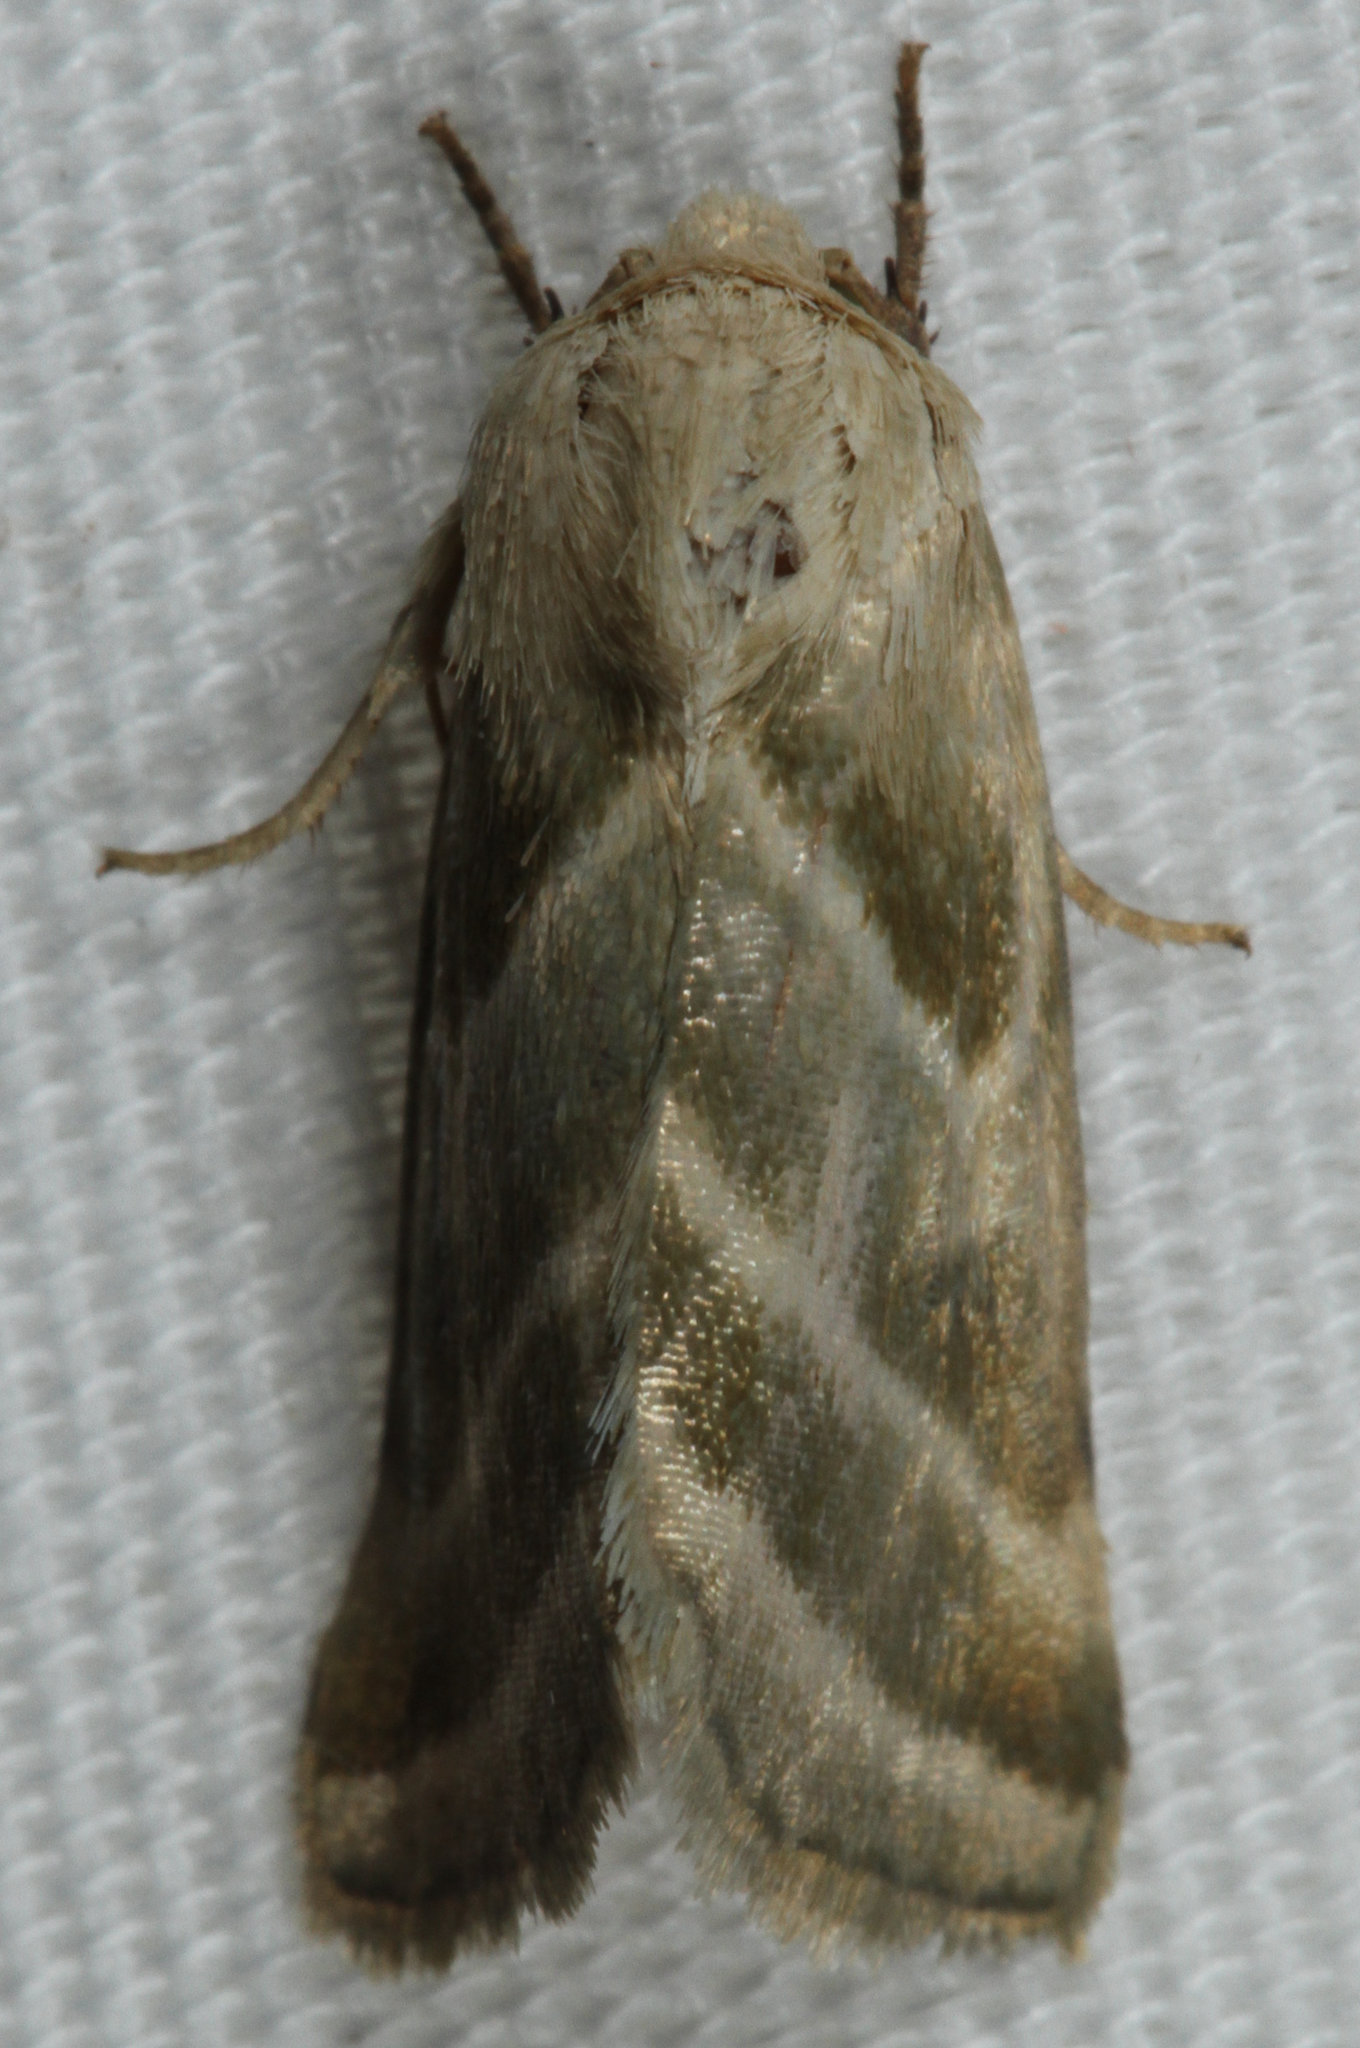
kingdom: Animalia
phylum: Arthropoda
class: Insecta
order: Lepidoptera
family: Noctuidae
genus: Schinia
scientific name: Schinia trifascia
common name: Three-lined flower moth
